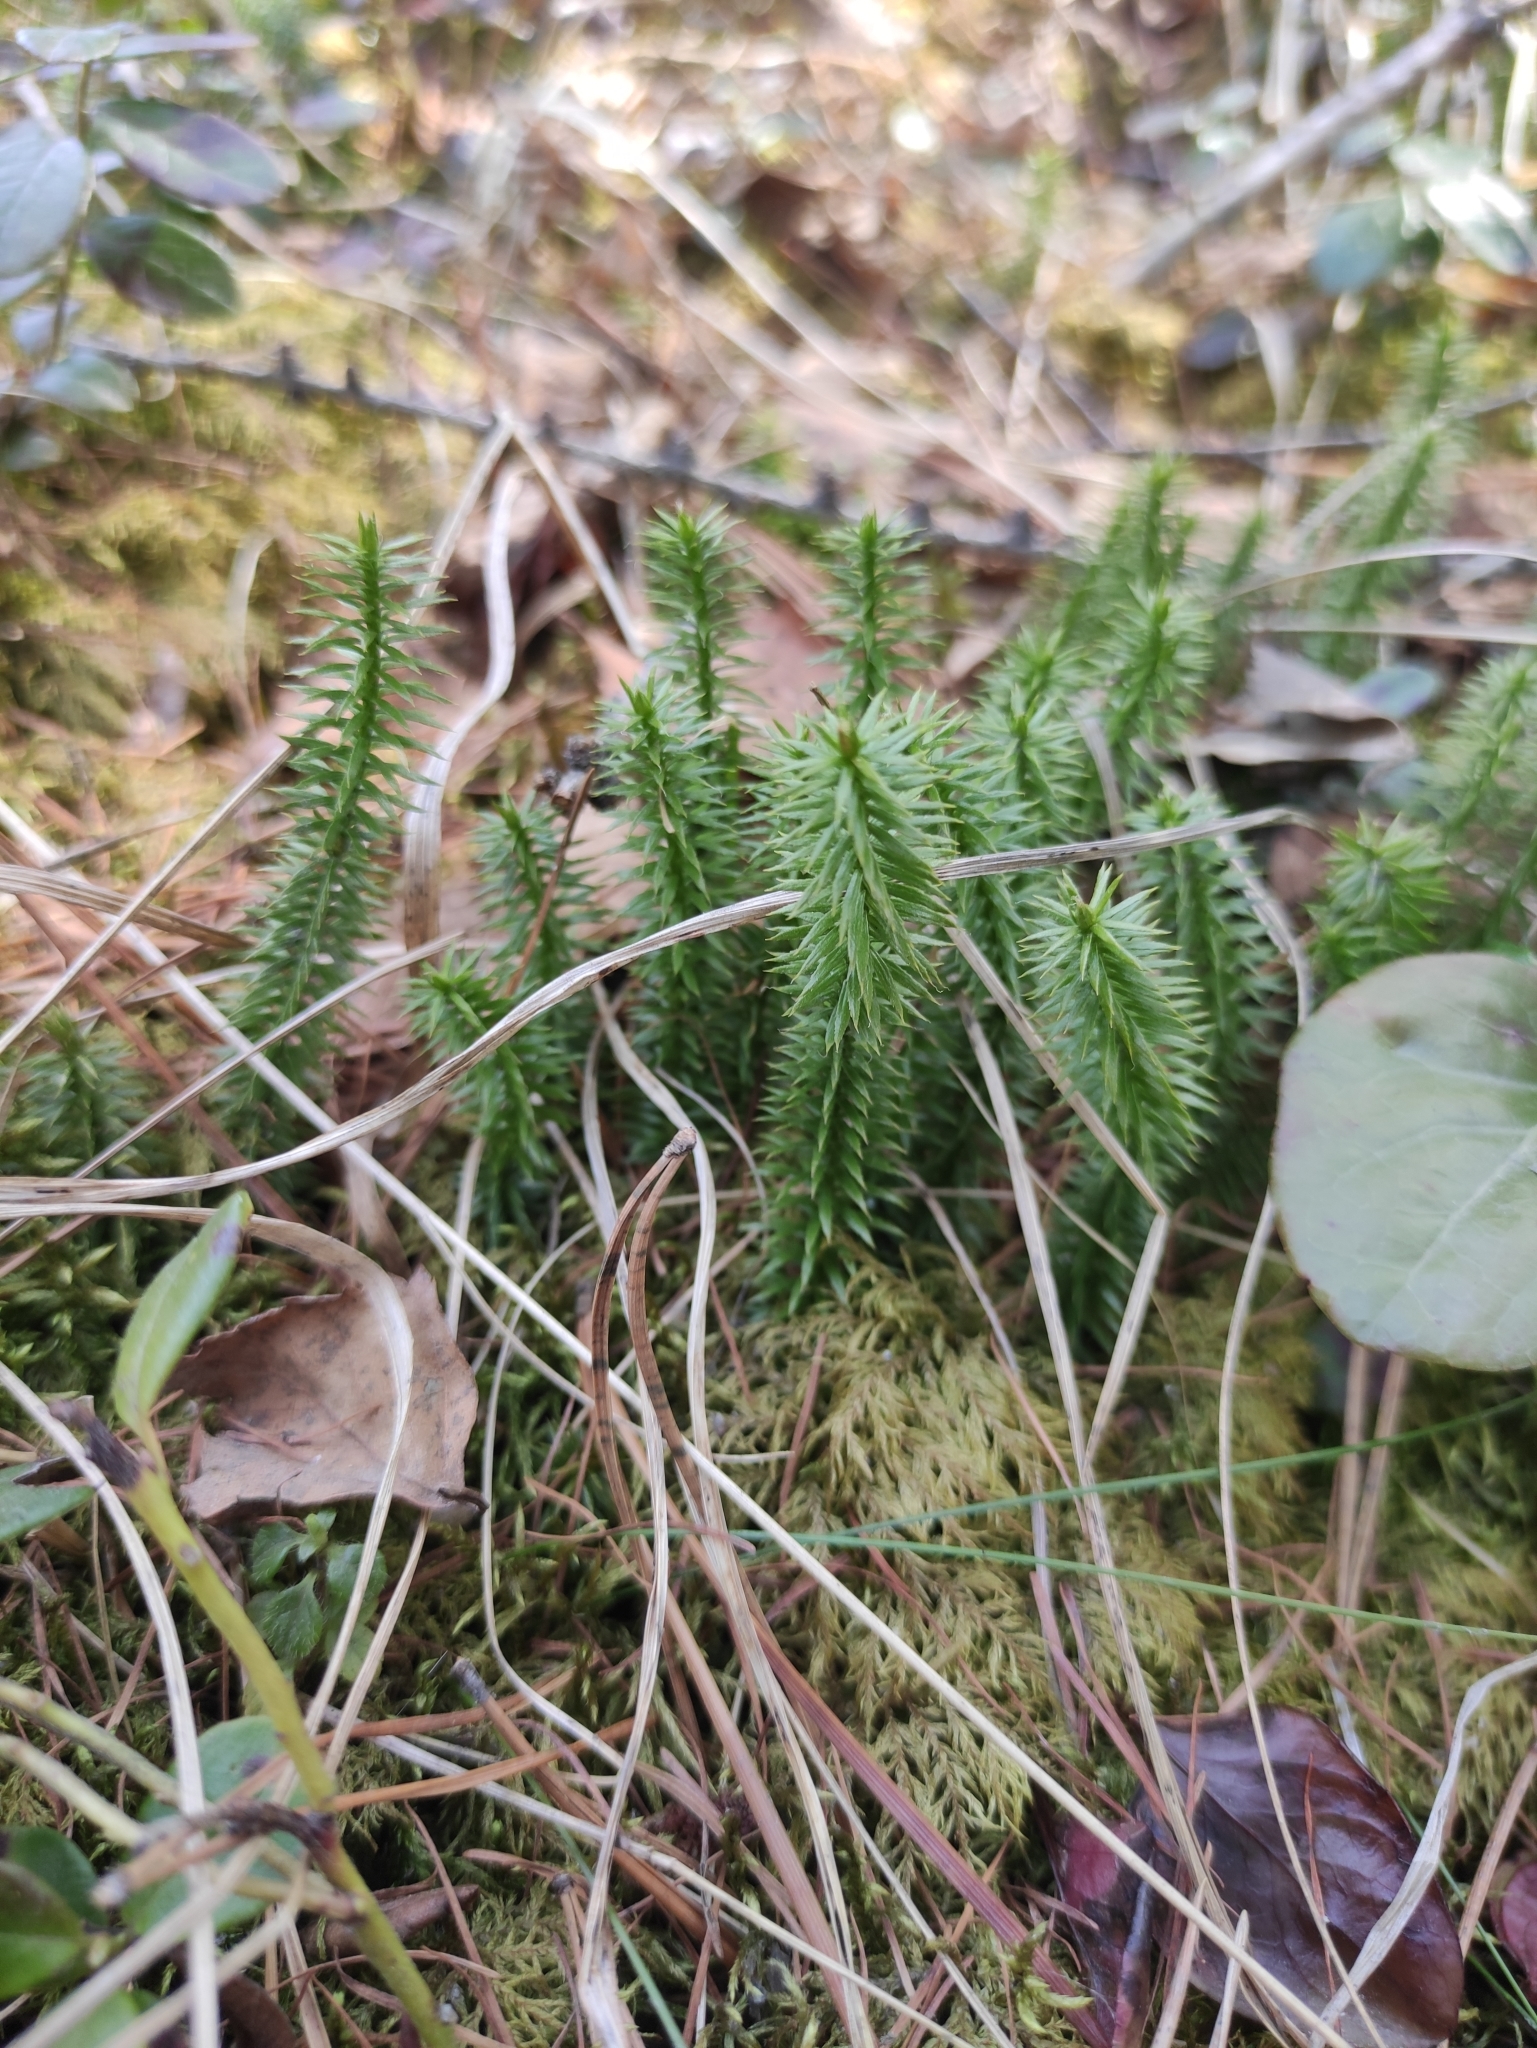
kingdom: Plantae
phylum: Tracheophyta
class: Lycopodiopsida
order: Lycopodiales
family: Lycopodiaceae
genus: Spinulum
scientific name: Spinulum annotinum
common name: Interrupted club-moss
